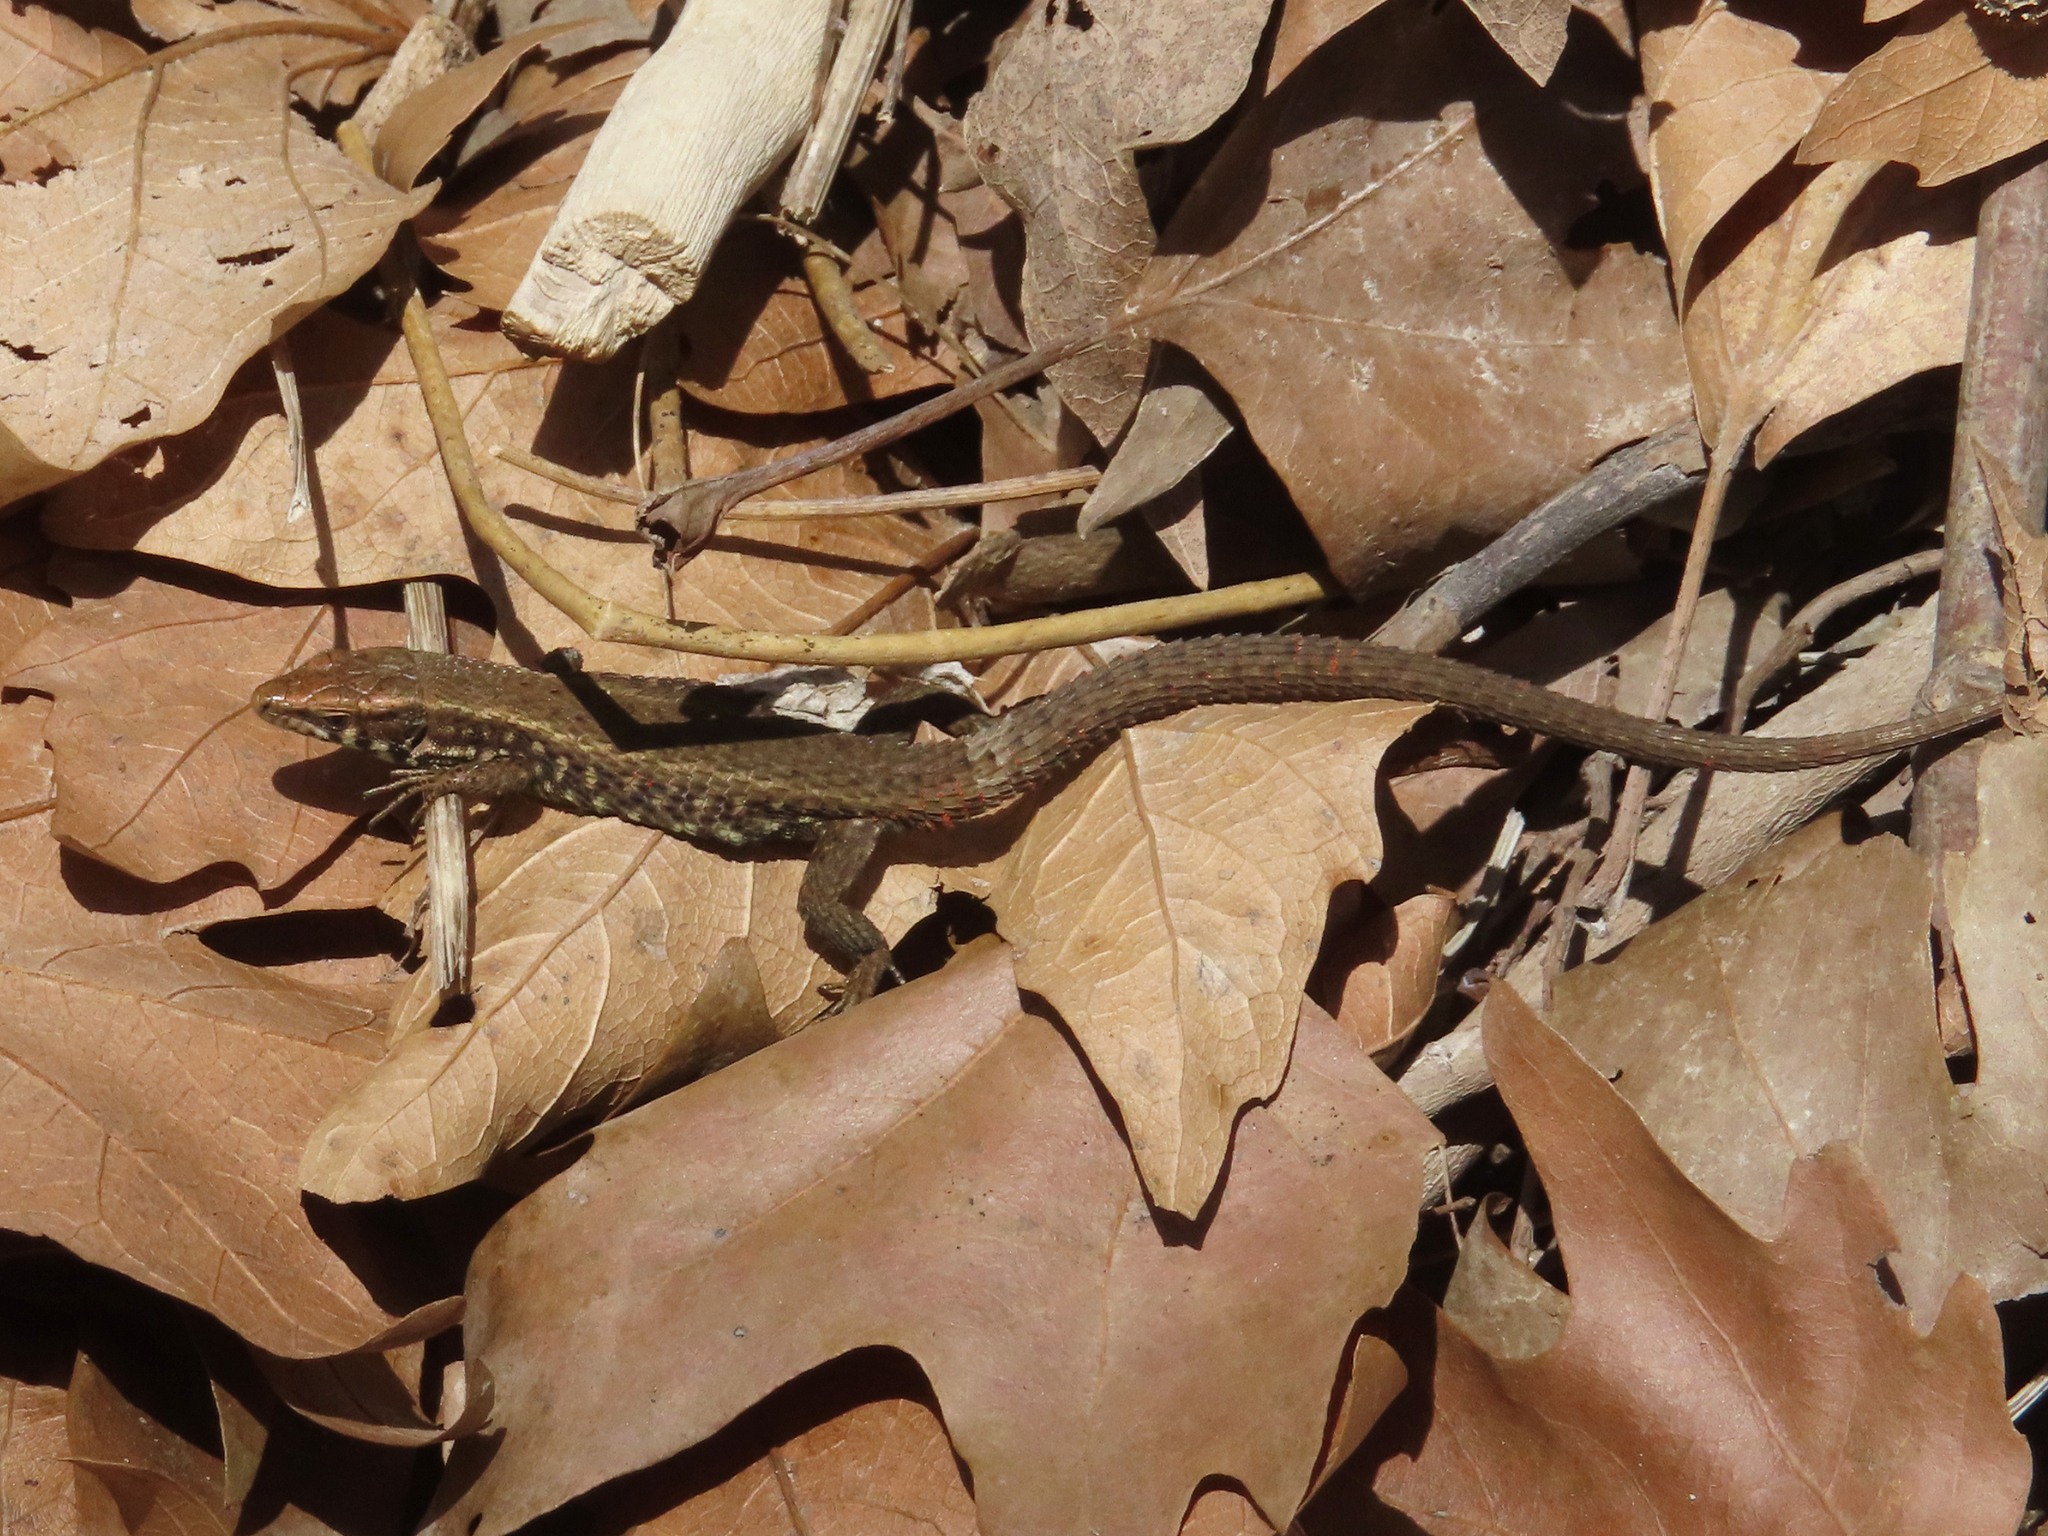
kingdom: Animalia
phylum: Chordata
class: Squamata
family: Lacertidae
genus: Algyroides
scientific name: Algyroides moreoticus
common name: Greek algyroides
